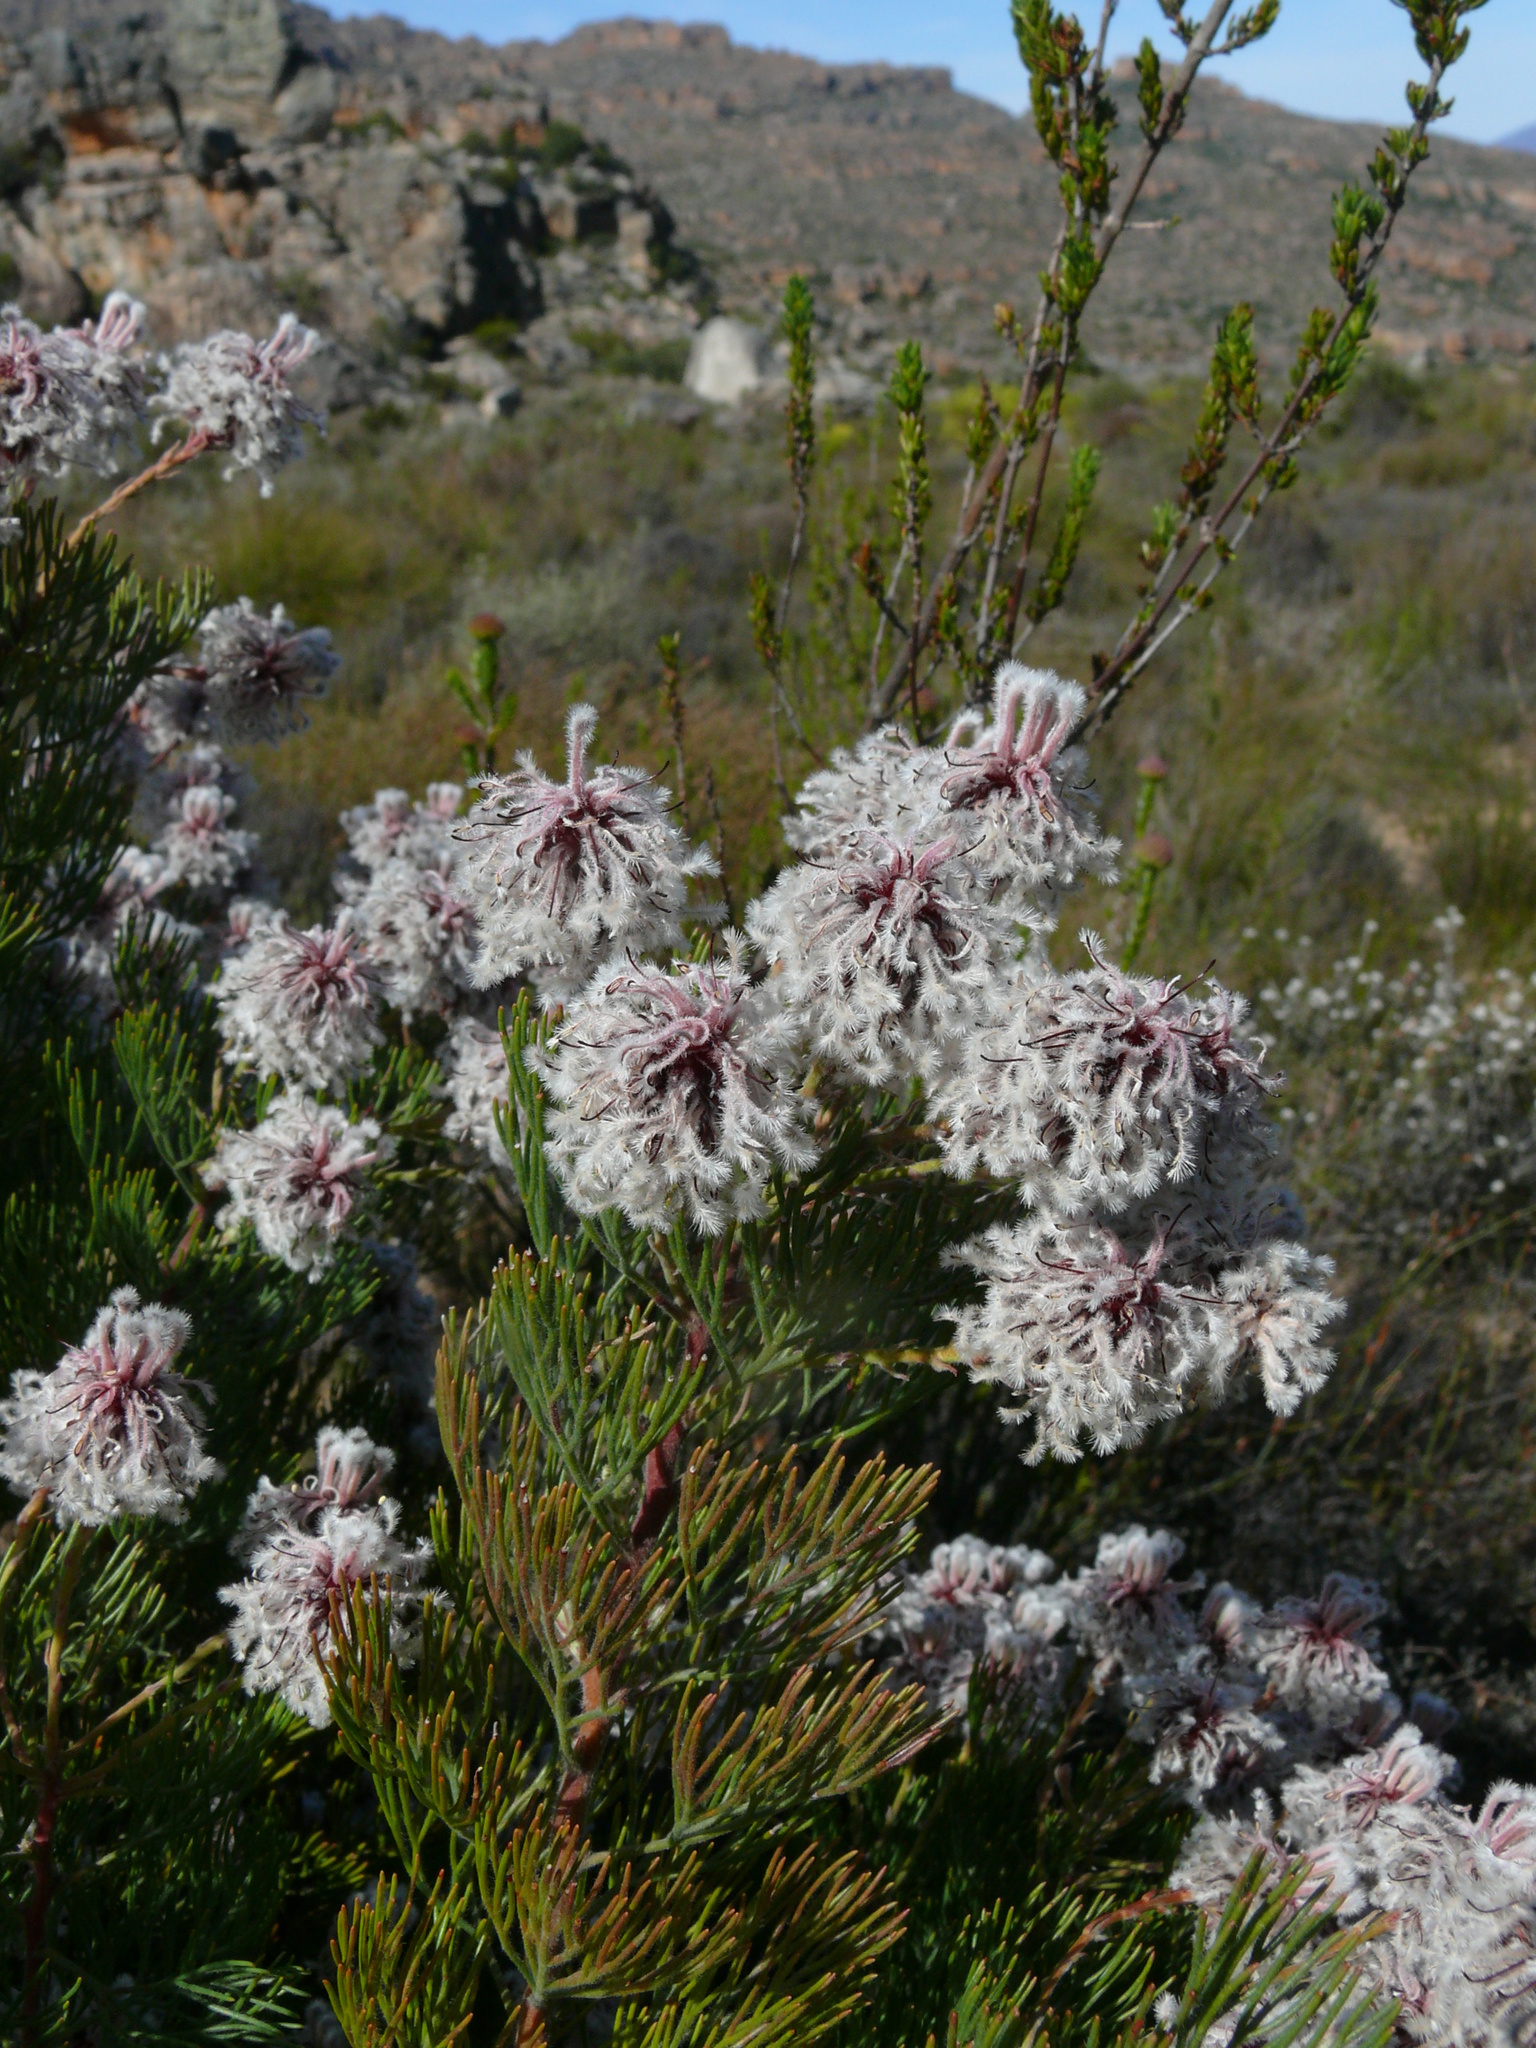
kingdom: Plantae
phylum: Tracheophyta
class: Magnoliopsida
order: Proteales
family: Proteaceae
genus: Serruria
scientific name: Serruria aitonii
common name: Marshmallow spiderhead
